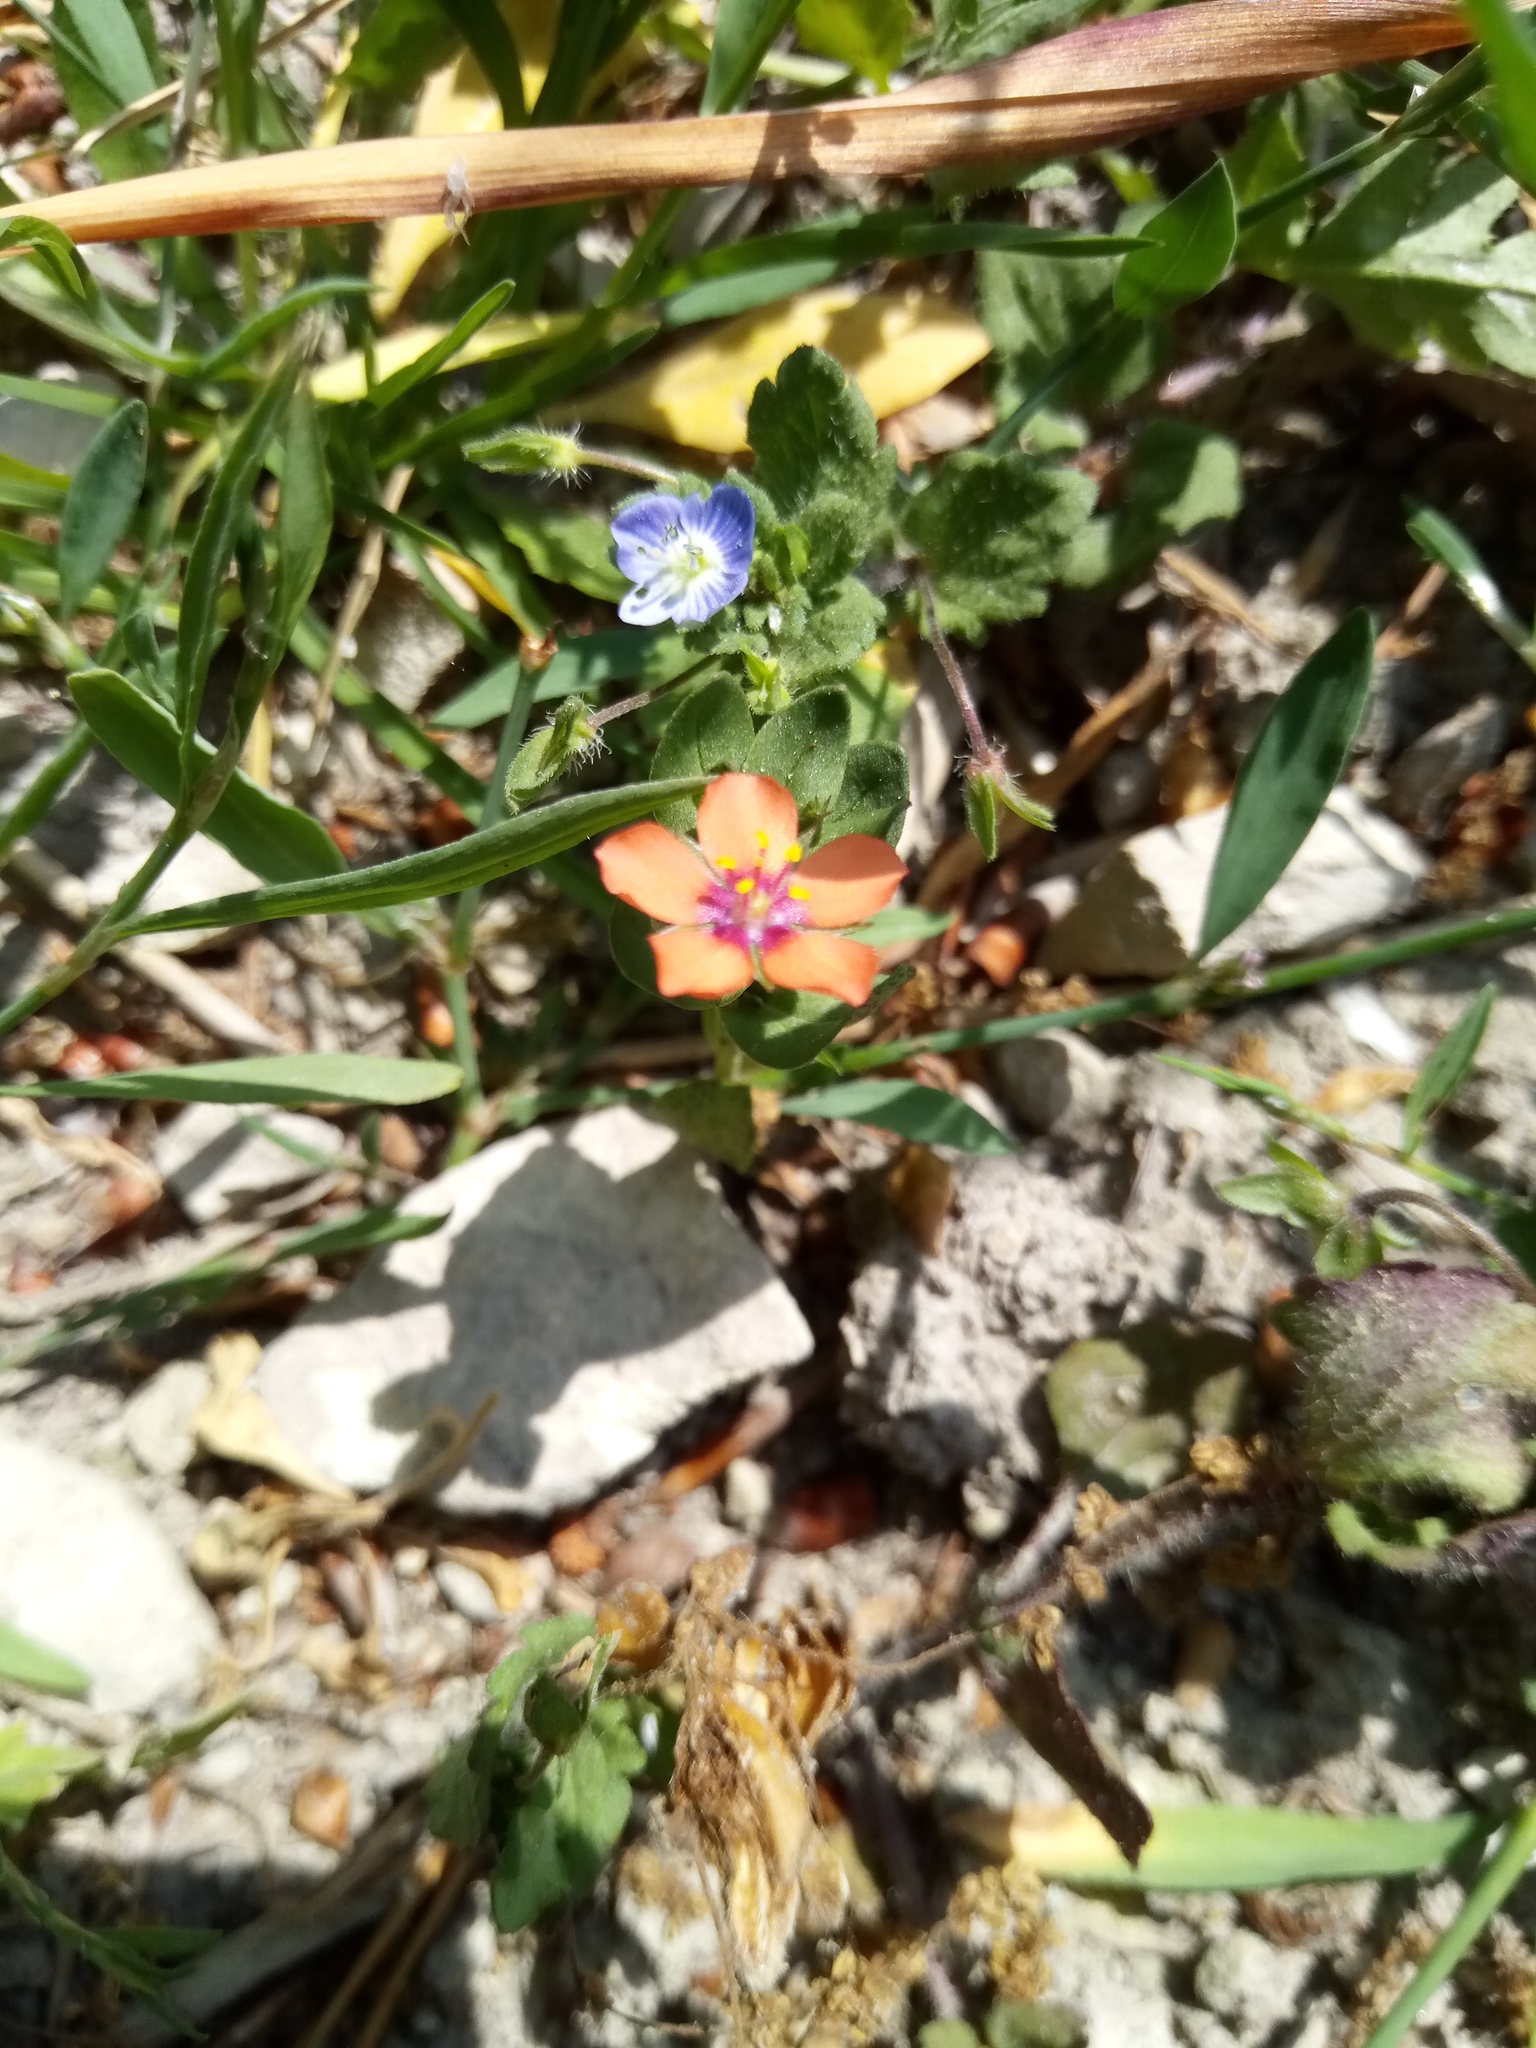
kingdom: Plantae
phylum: Tracheophyta
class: Magnoliopsida
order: Ericales
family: Primulaceae
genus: Lysimachia
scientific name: Lysimachia arvensis
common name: Scarlet pimpernel
